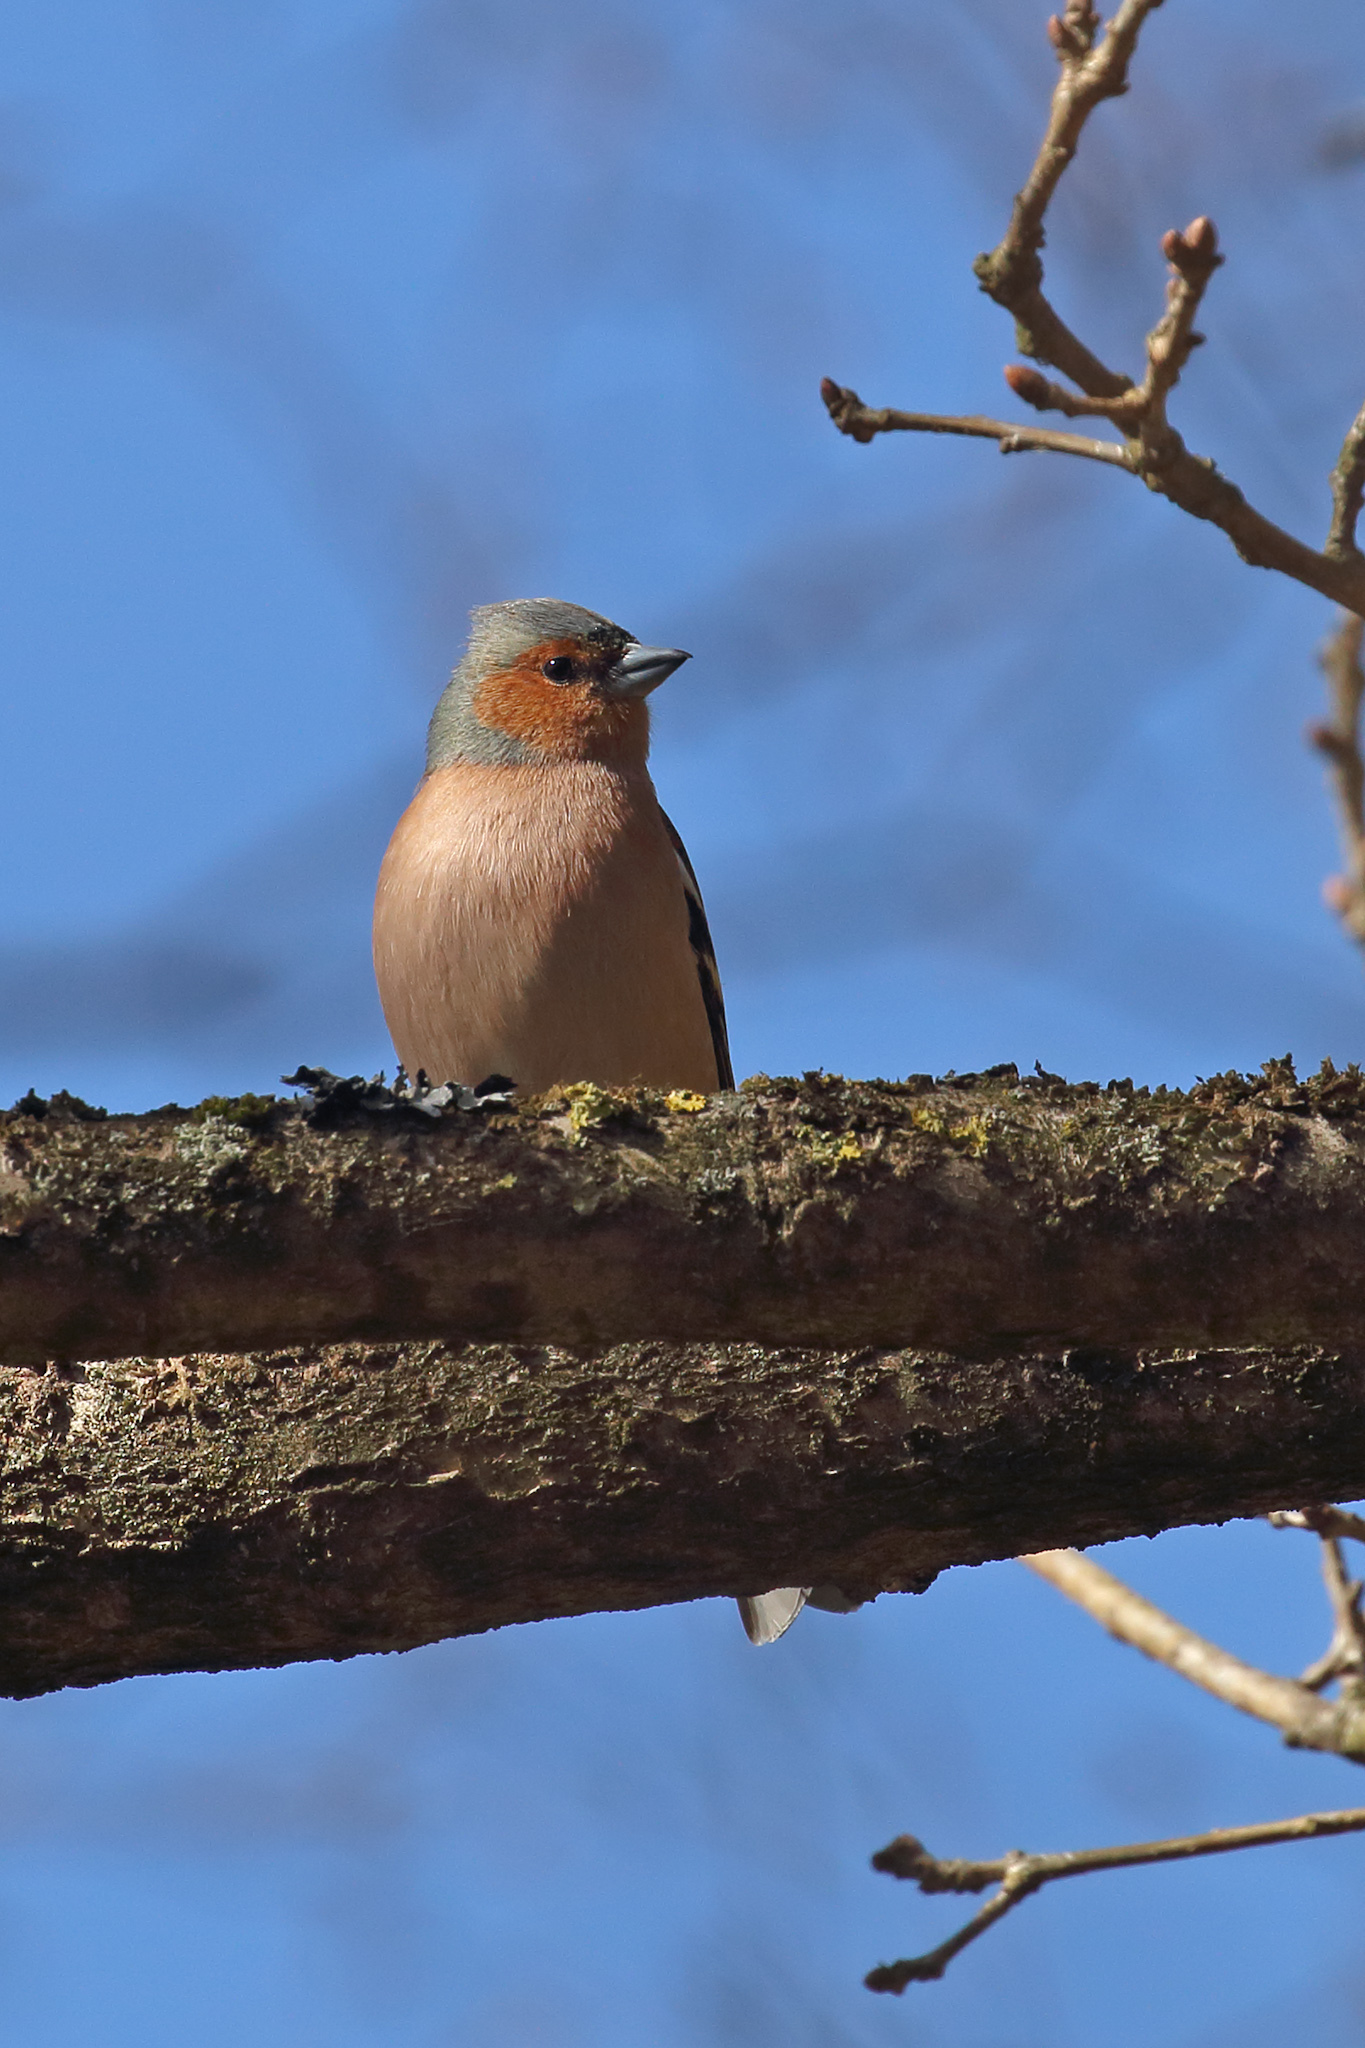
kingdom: Animalia
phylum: Chordata
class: Aves
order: Passeriformes
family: Fringillidae
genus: Fringilla
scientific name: Fringilla coelebs
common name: Common chaffinch
